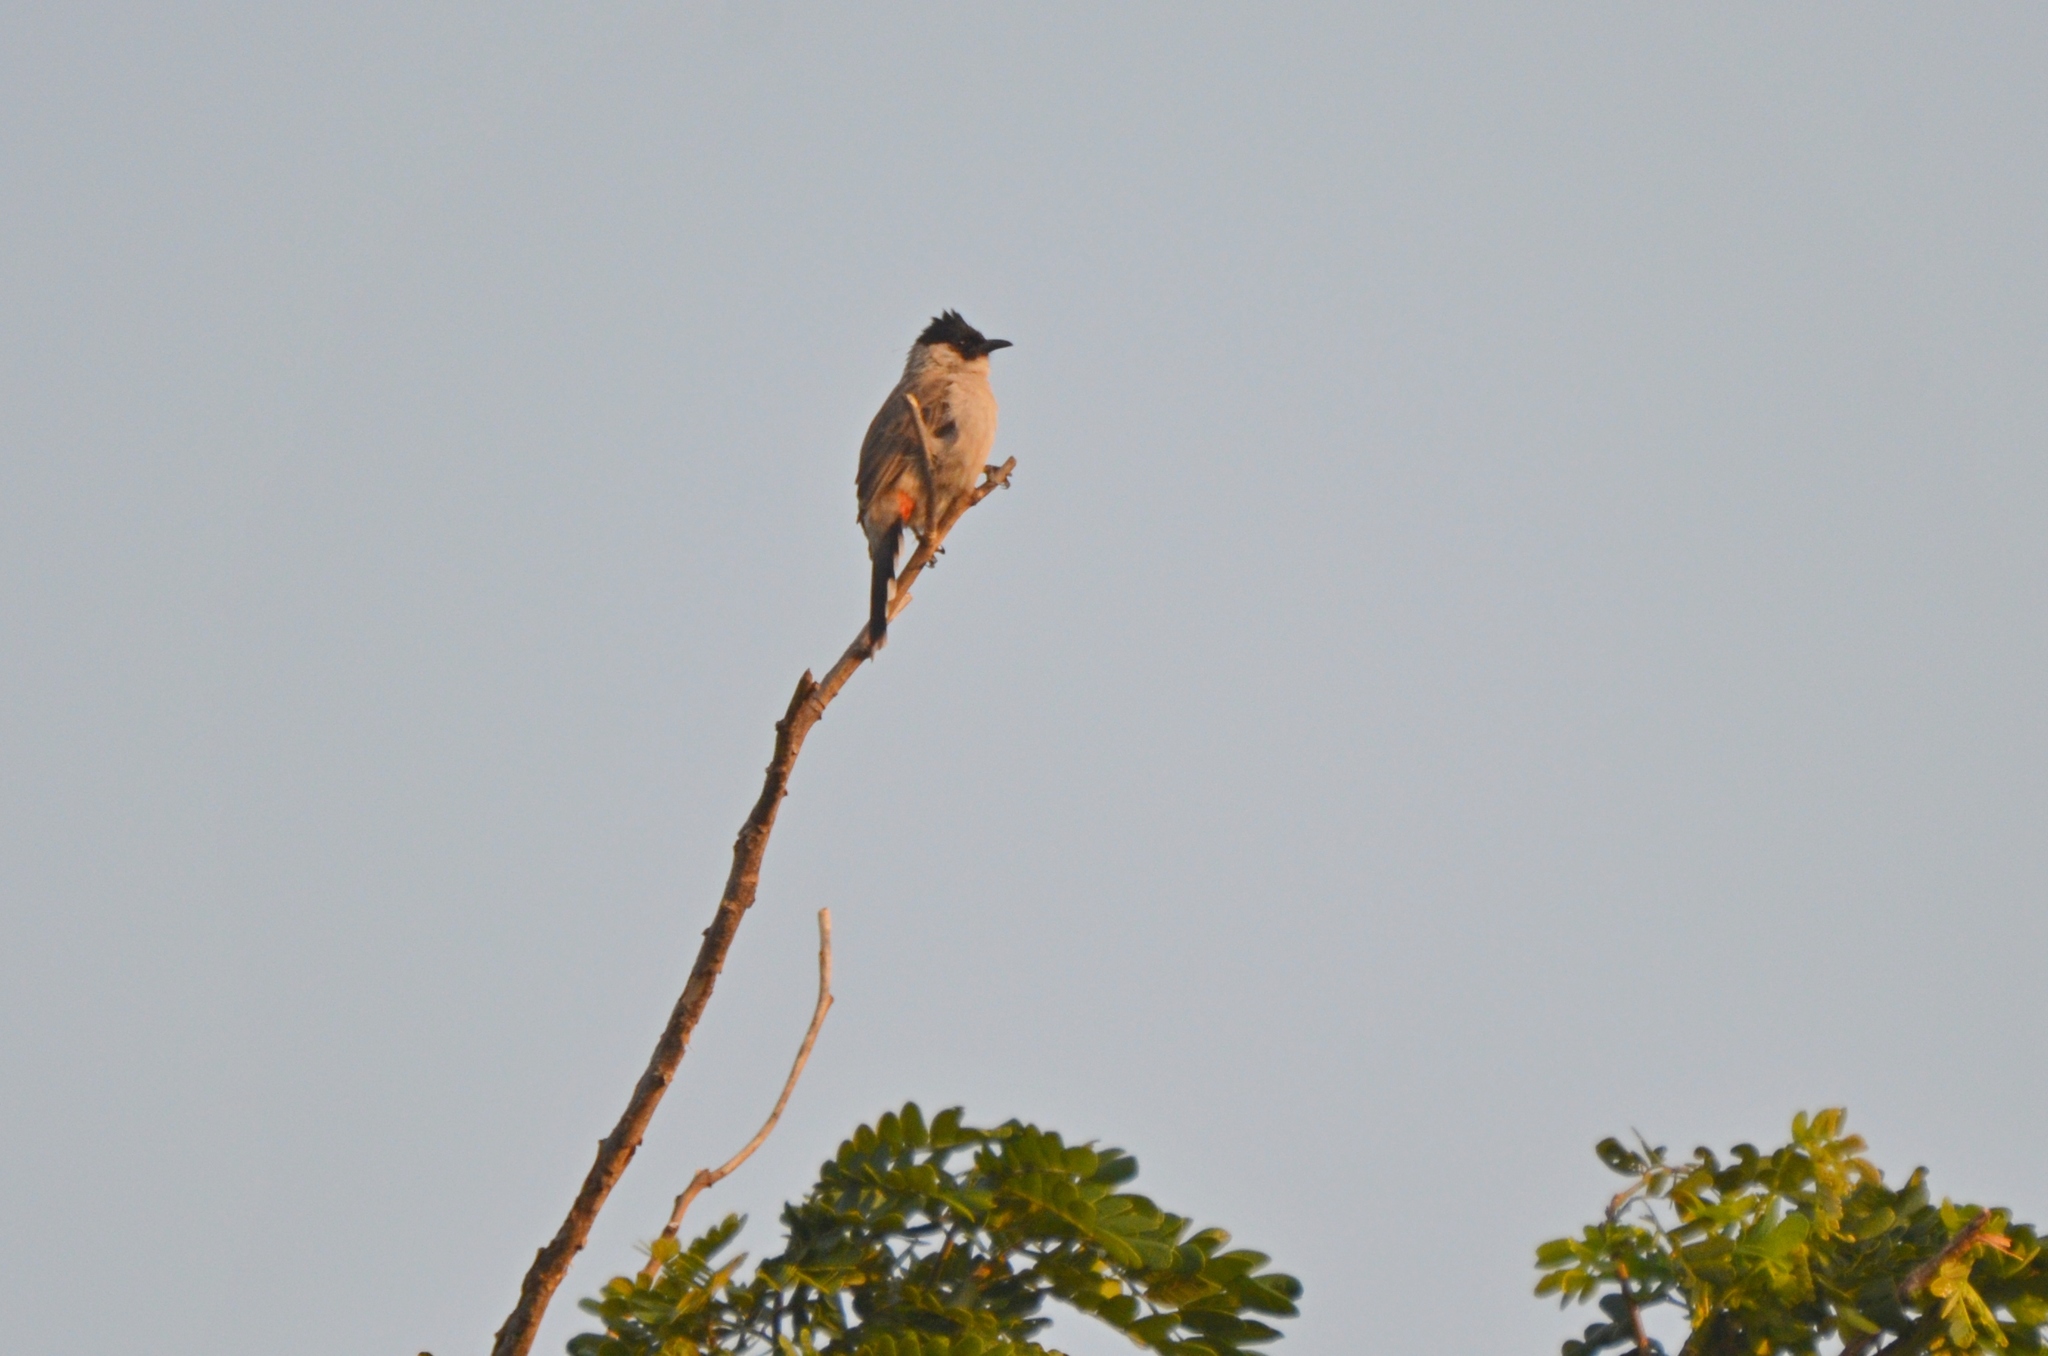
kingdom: Animalia
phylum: Chordata
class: Aves
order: Passeriformes
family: Pycnonotidae
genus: Pycnonotus
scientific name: Pycnonotus aurigaster
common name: Sooty-headed bulbul
